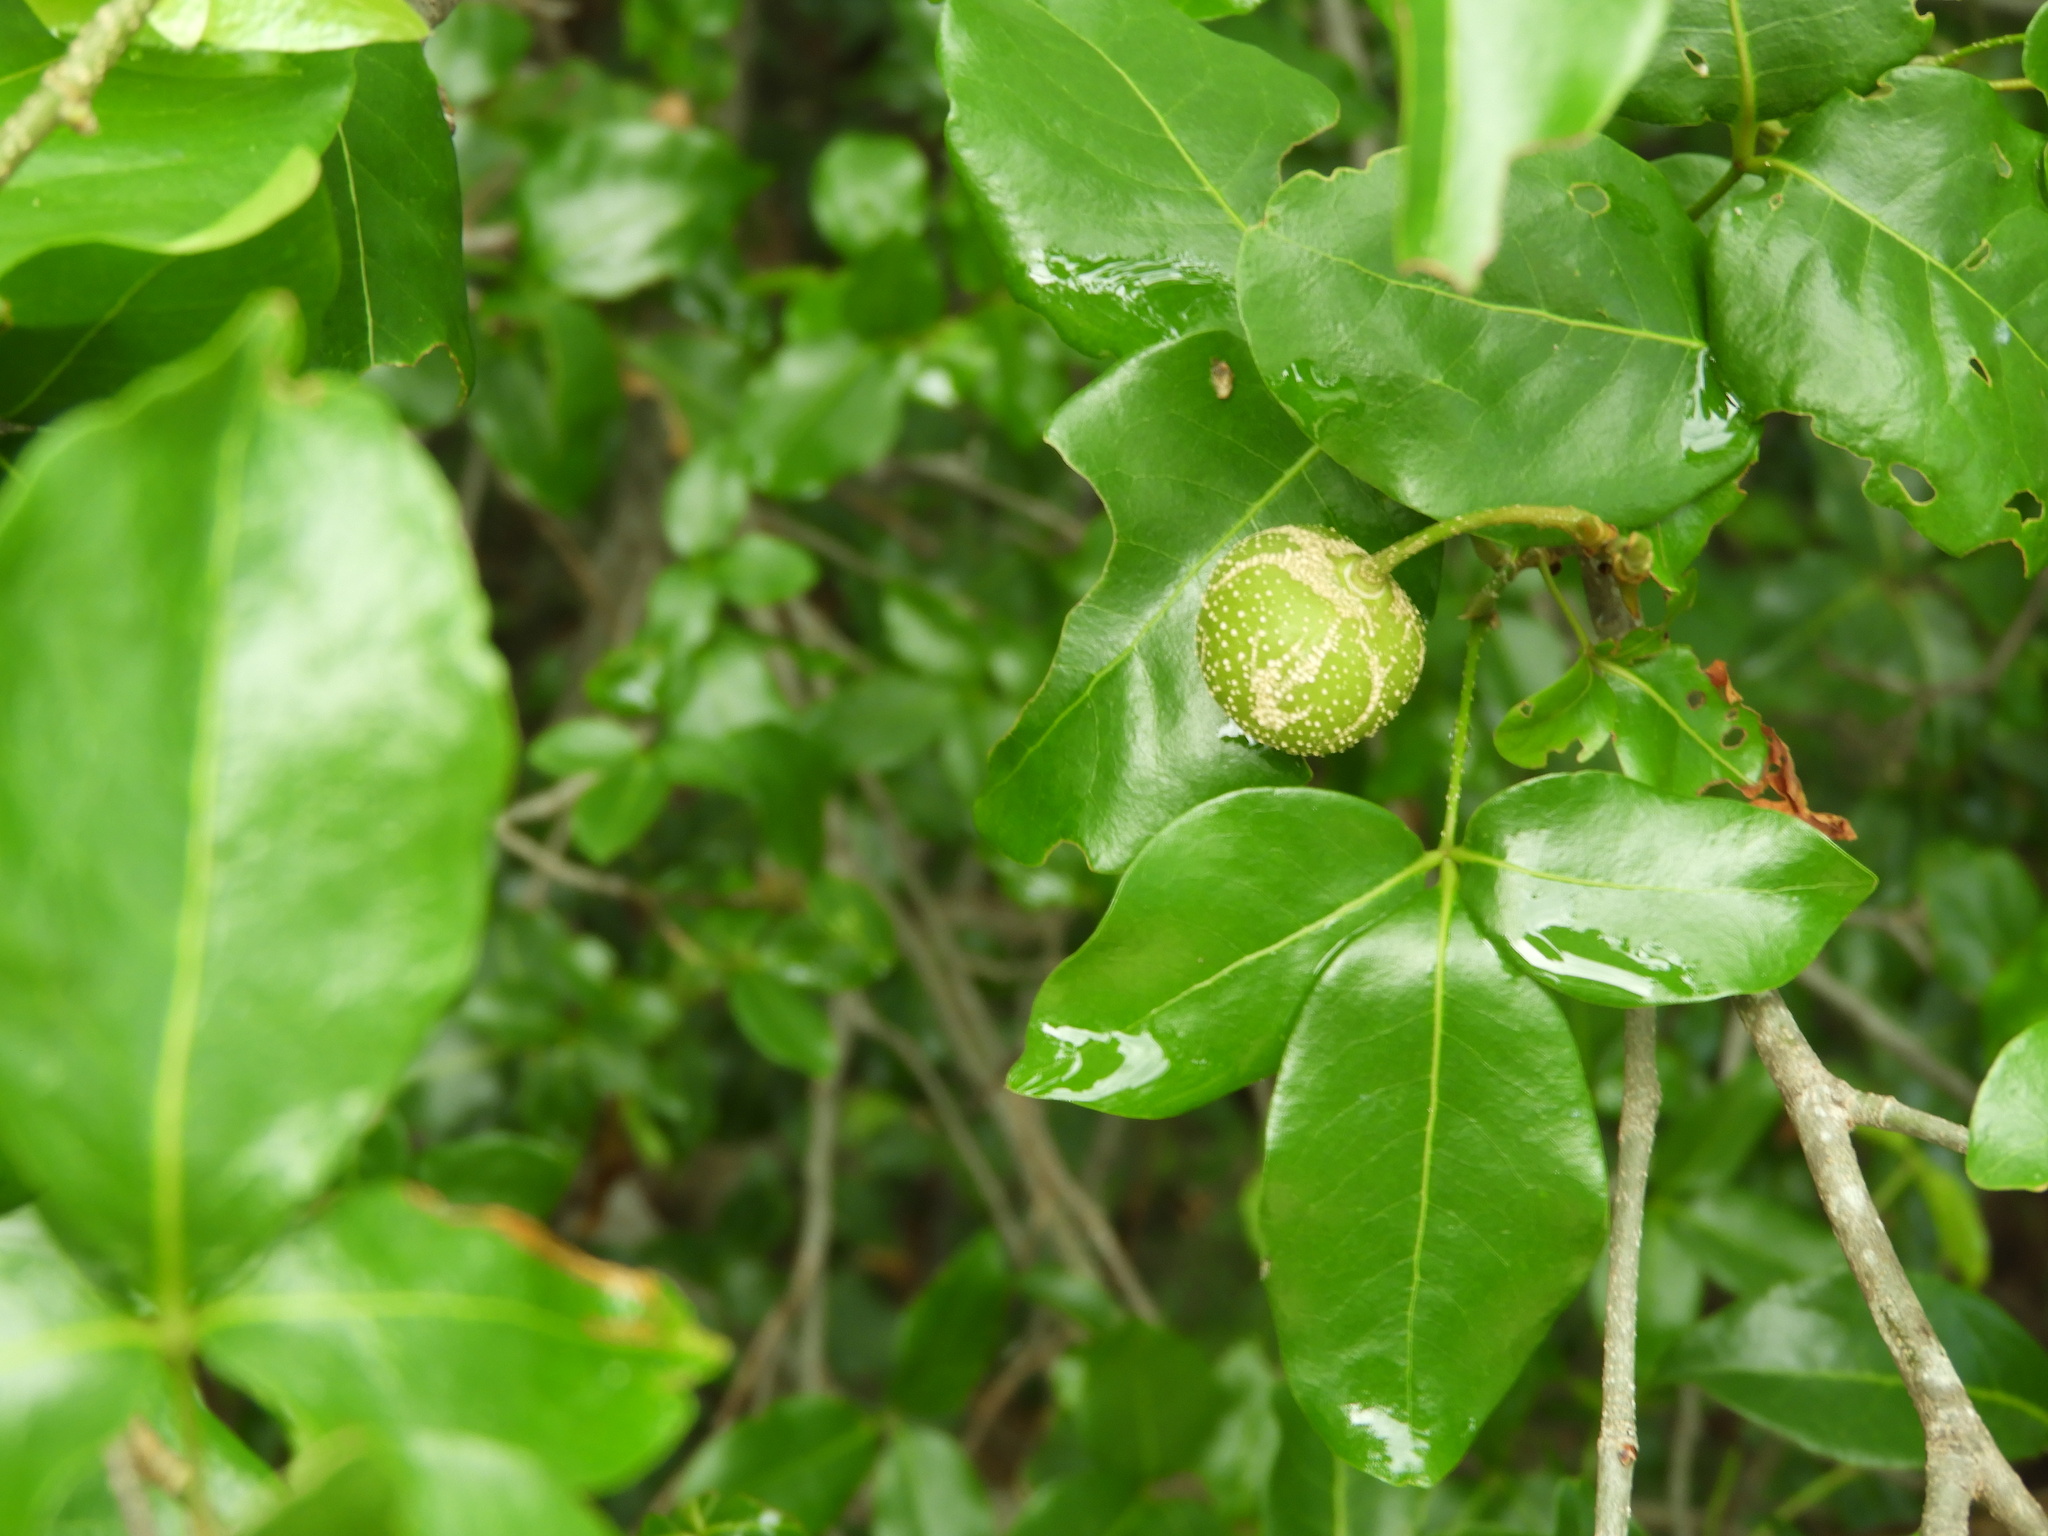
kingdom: Plantae
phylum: Tracheophyta
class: Magnoliopsida
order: Malpighiales
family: Picrodendraceae
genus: Piranhea
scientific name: Piranhea mexicana
